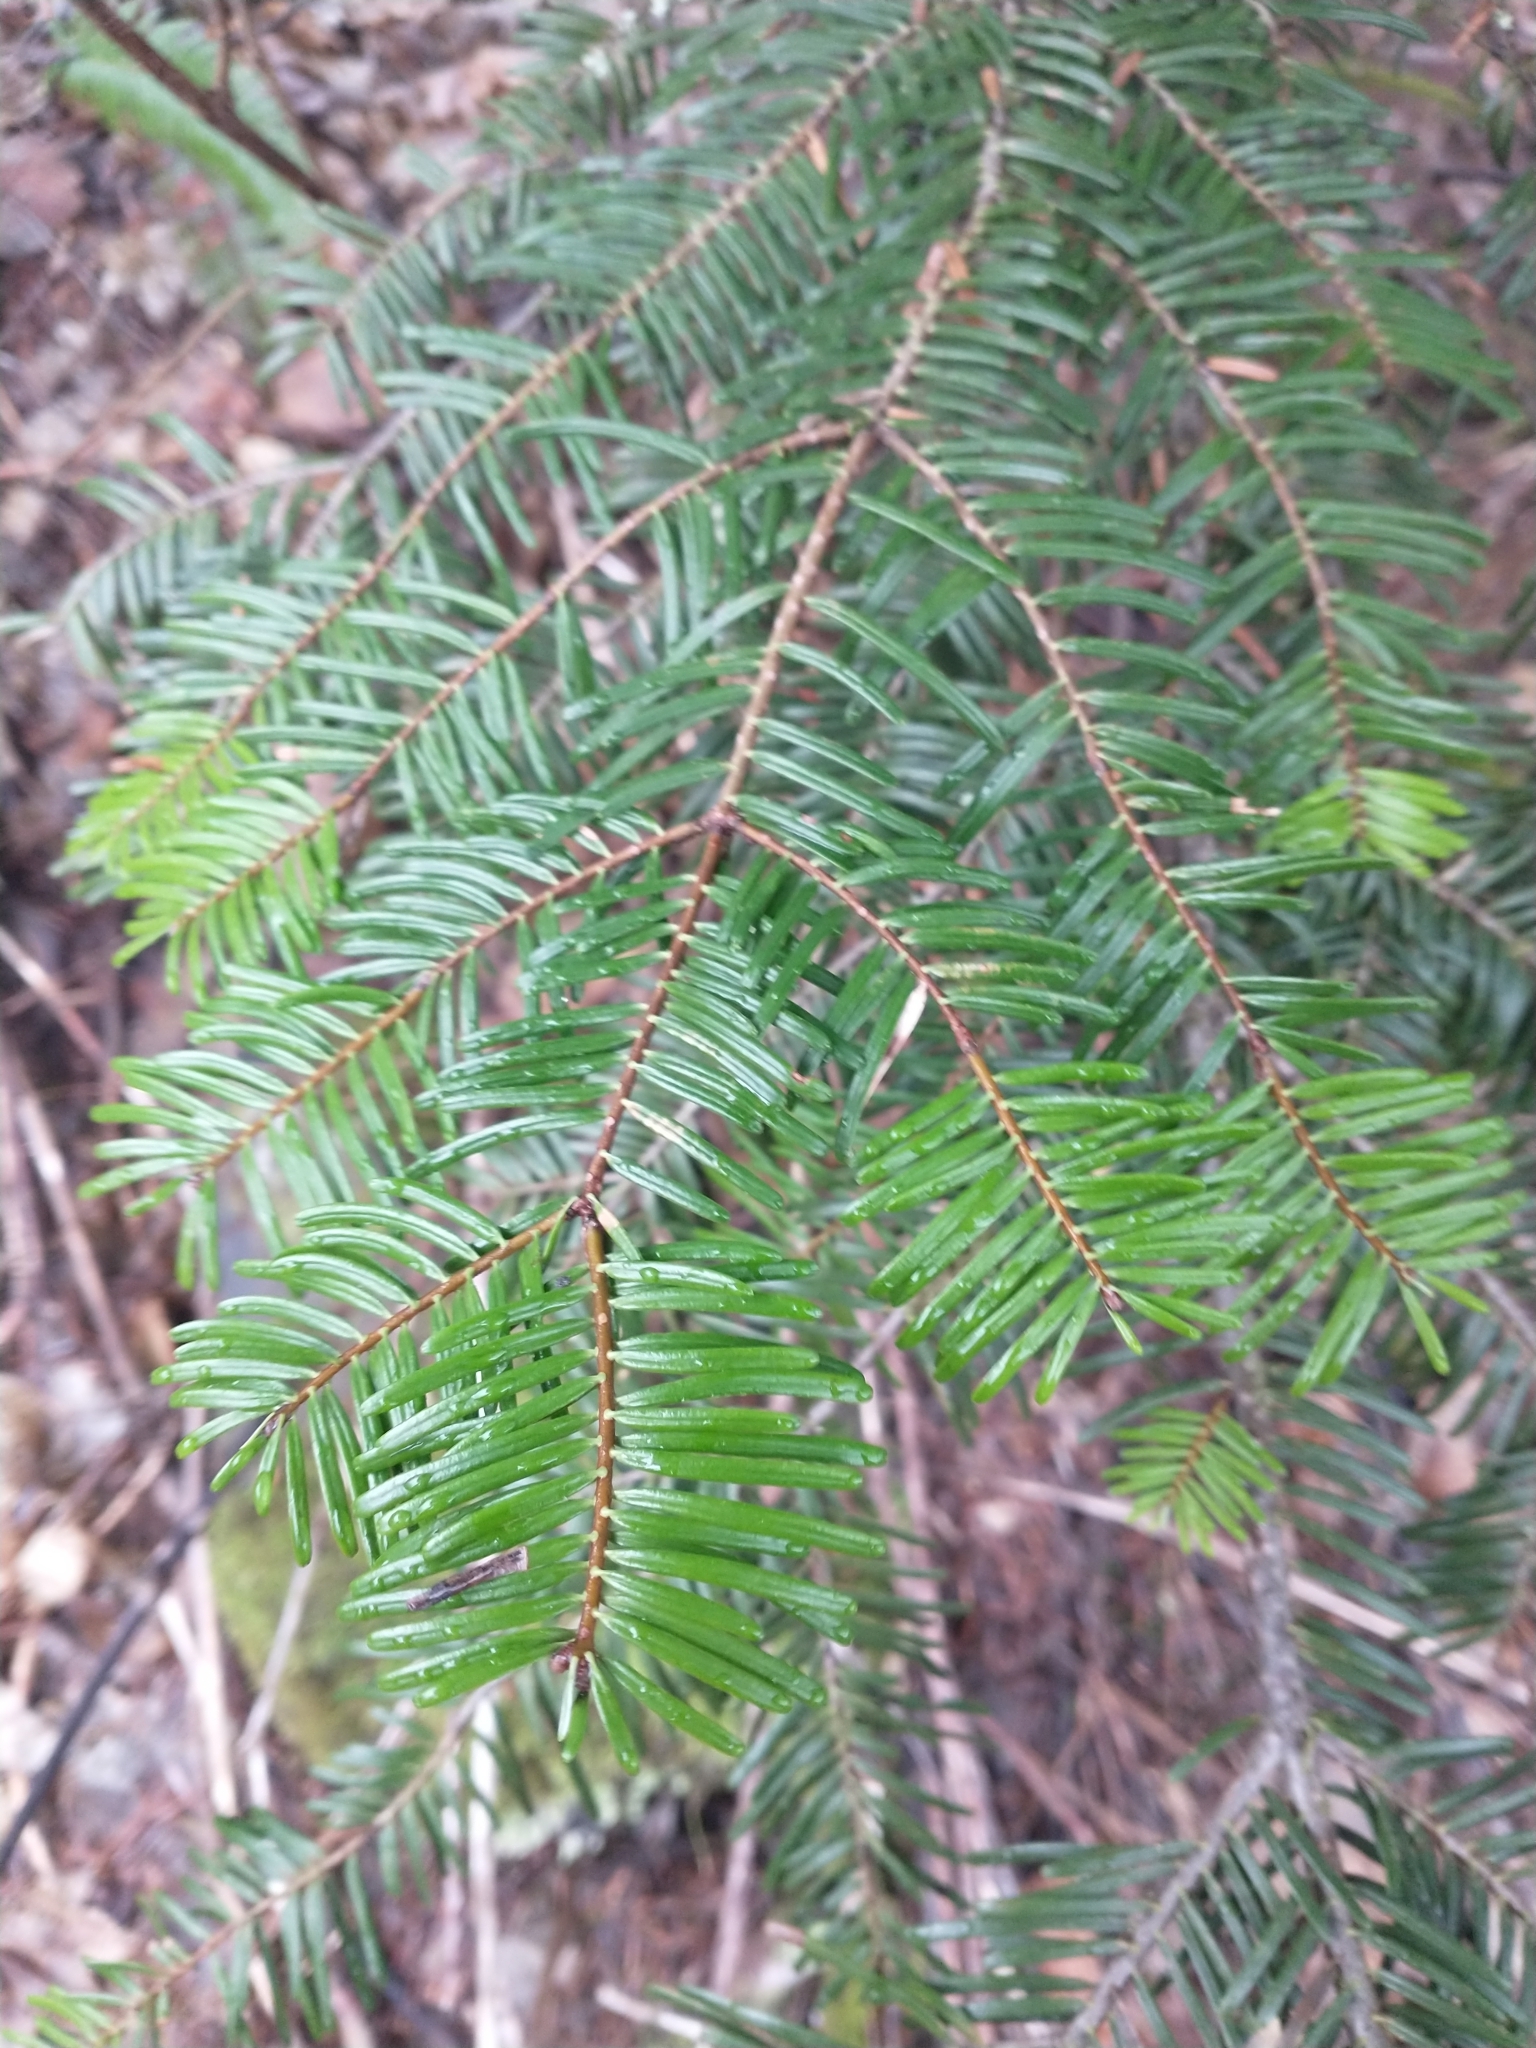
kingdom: Plantae
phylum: Tracheophyta
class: Pinopsida
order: Pinales
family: Pinaceae
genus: Abies
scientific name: Abies grandis
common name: Giant fir
